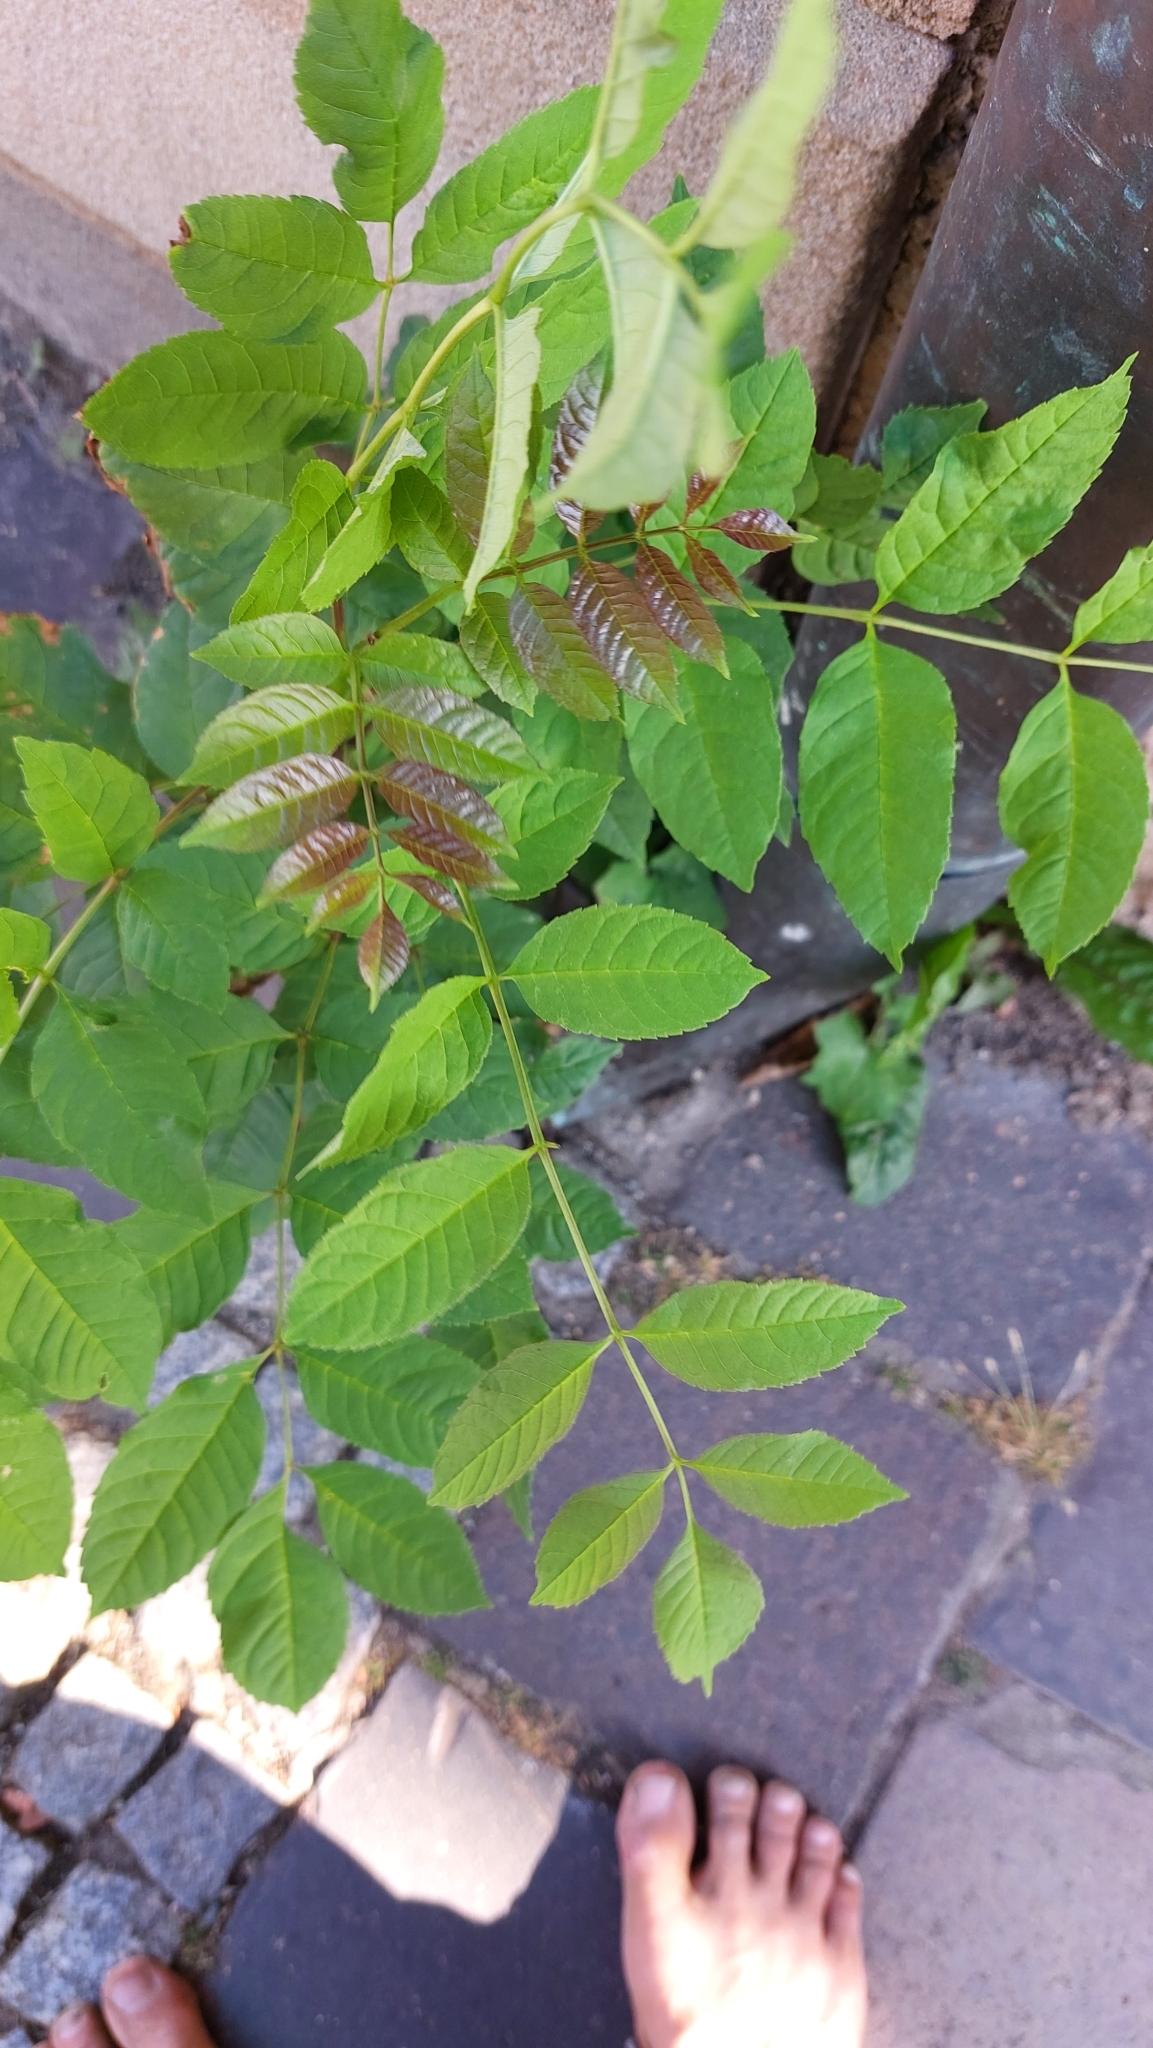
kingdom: Plantae
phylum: Tracheophyta
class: Magnoliopsida
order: Lamiales
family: Oleaceae
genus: Fraxinus
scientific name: Fraxinus excelsior
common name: European ash
